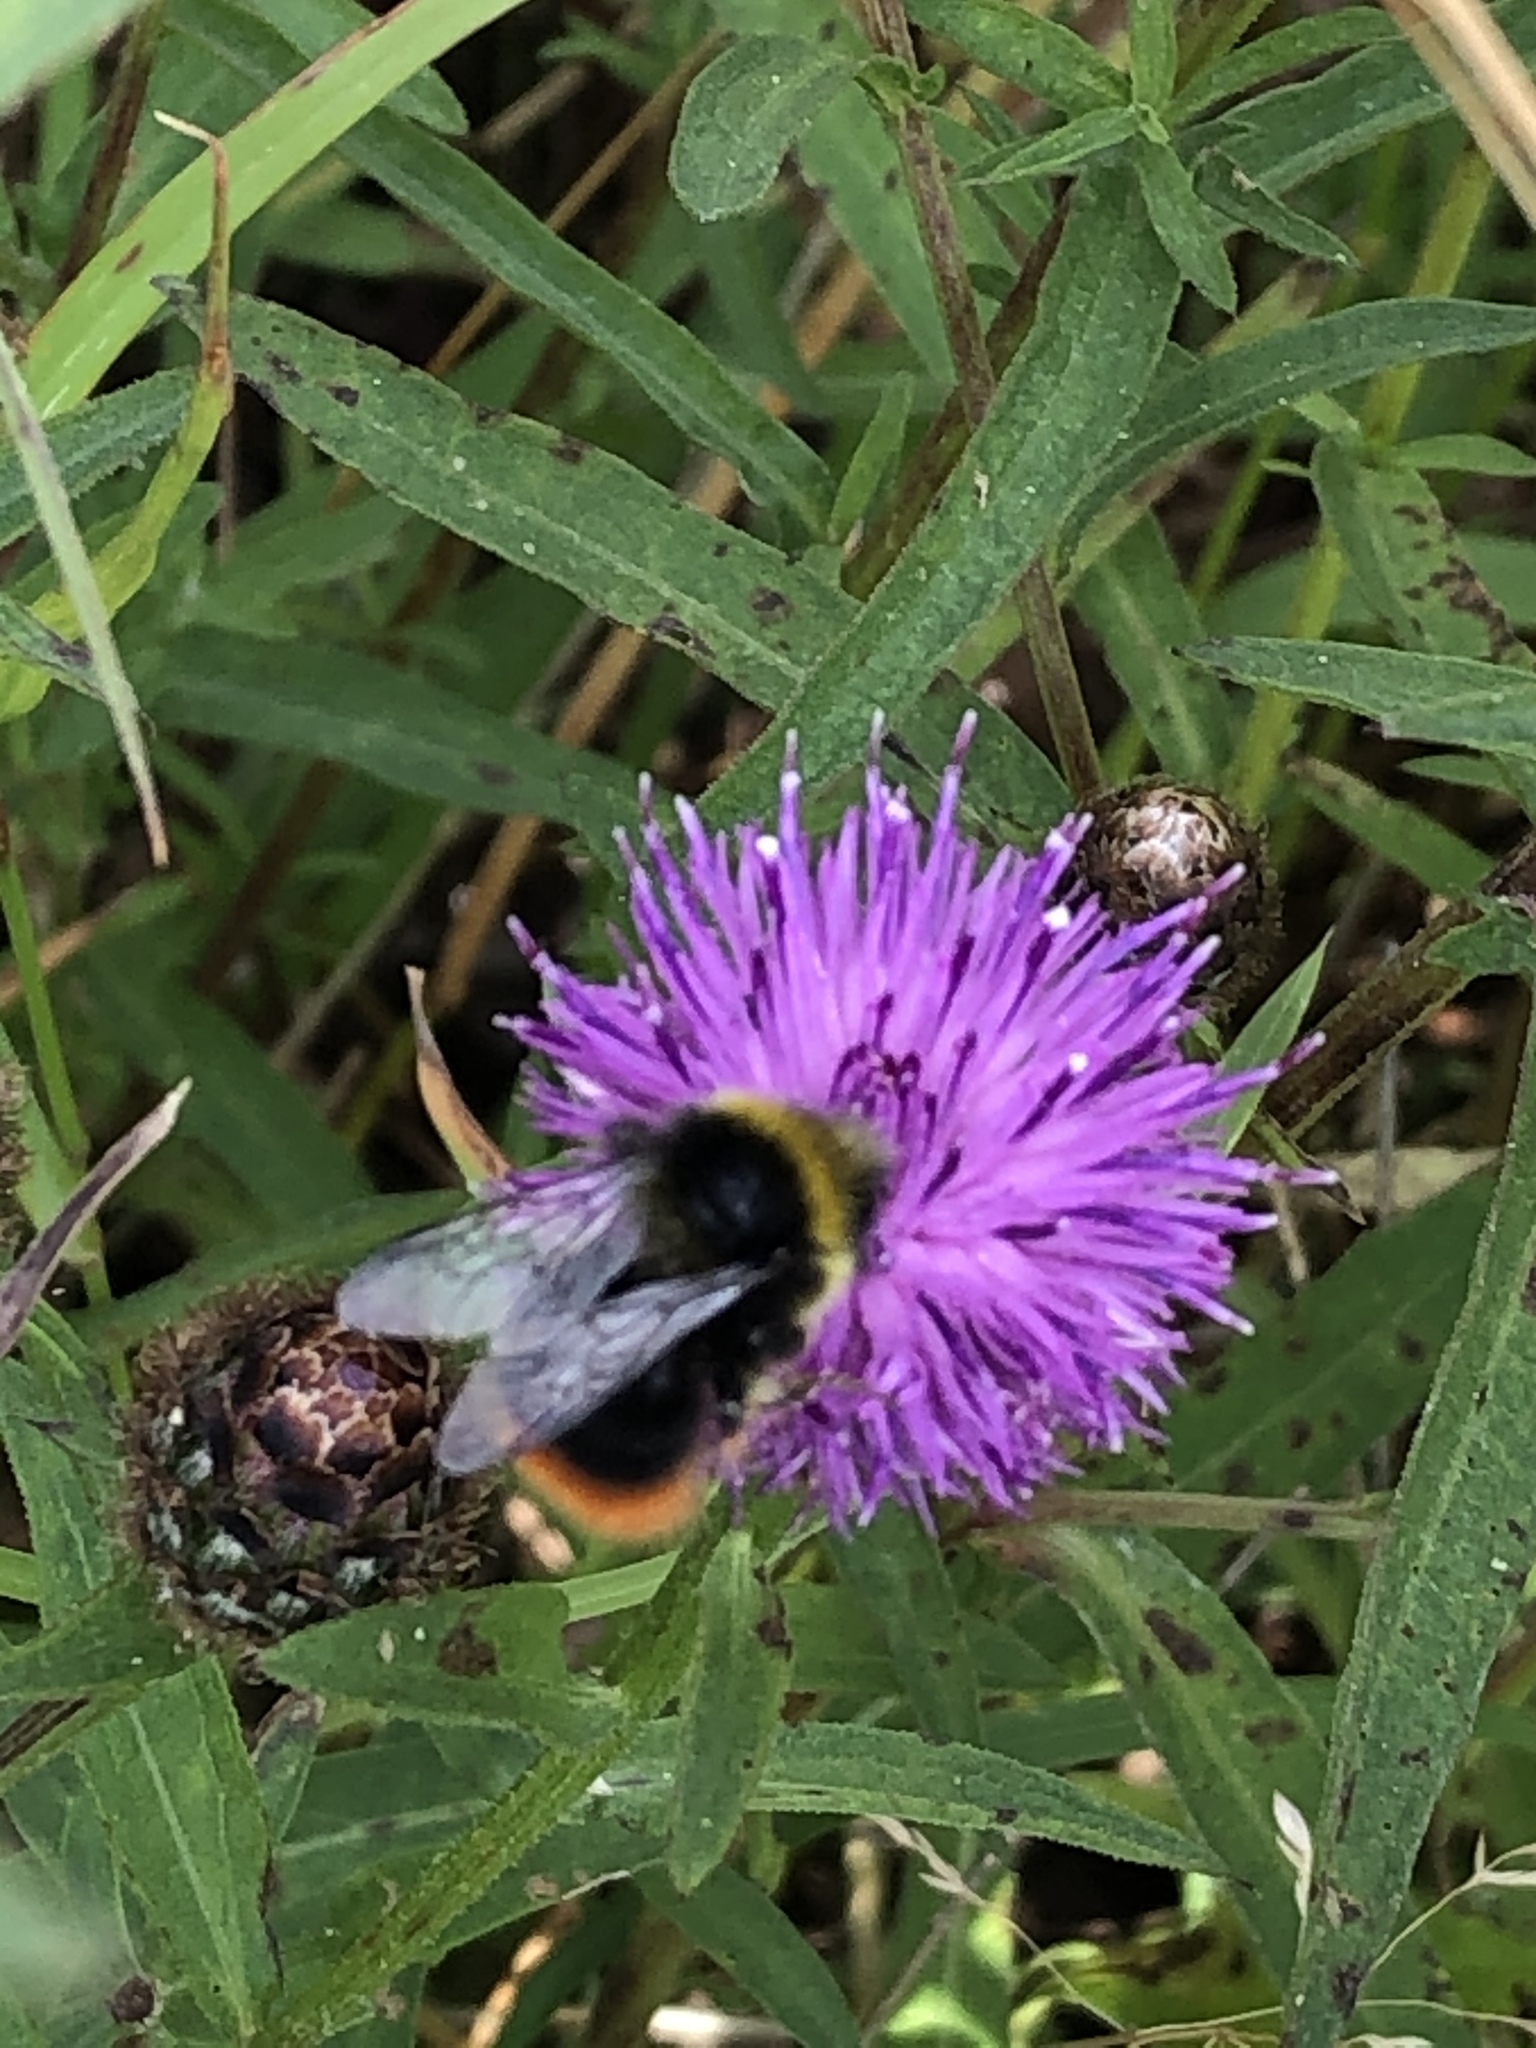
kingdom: Animalia
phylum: Arthropoda
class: Insecta
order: Hymenoptera
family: Apidae
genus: Bombus
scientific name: Bombus lapidarius
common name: Large red-tailed humble-bee
